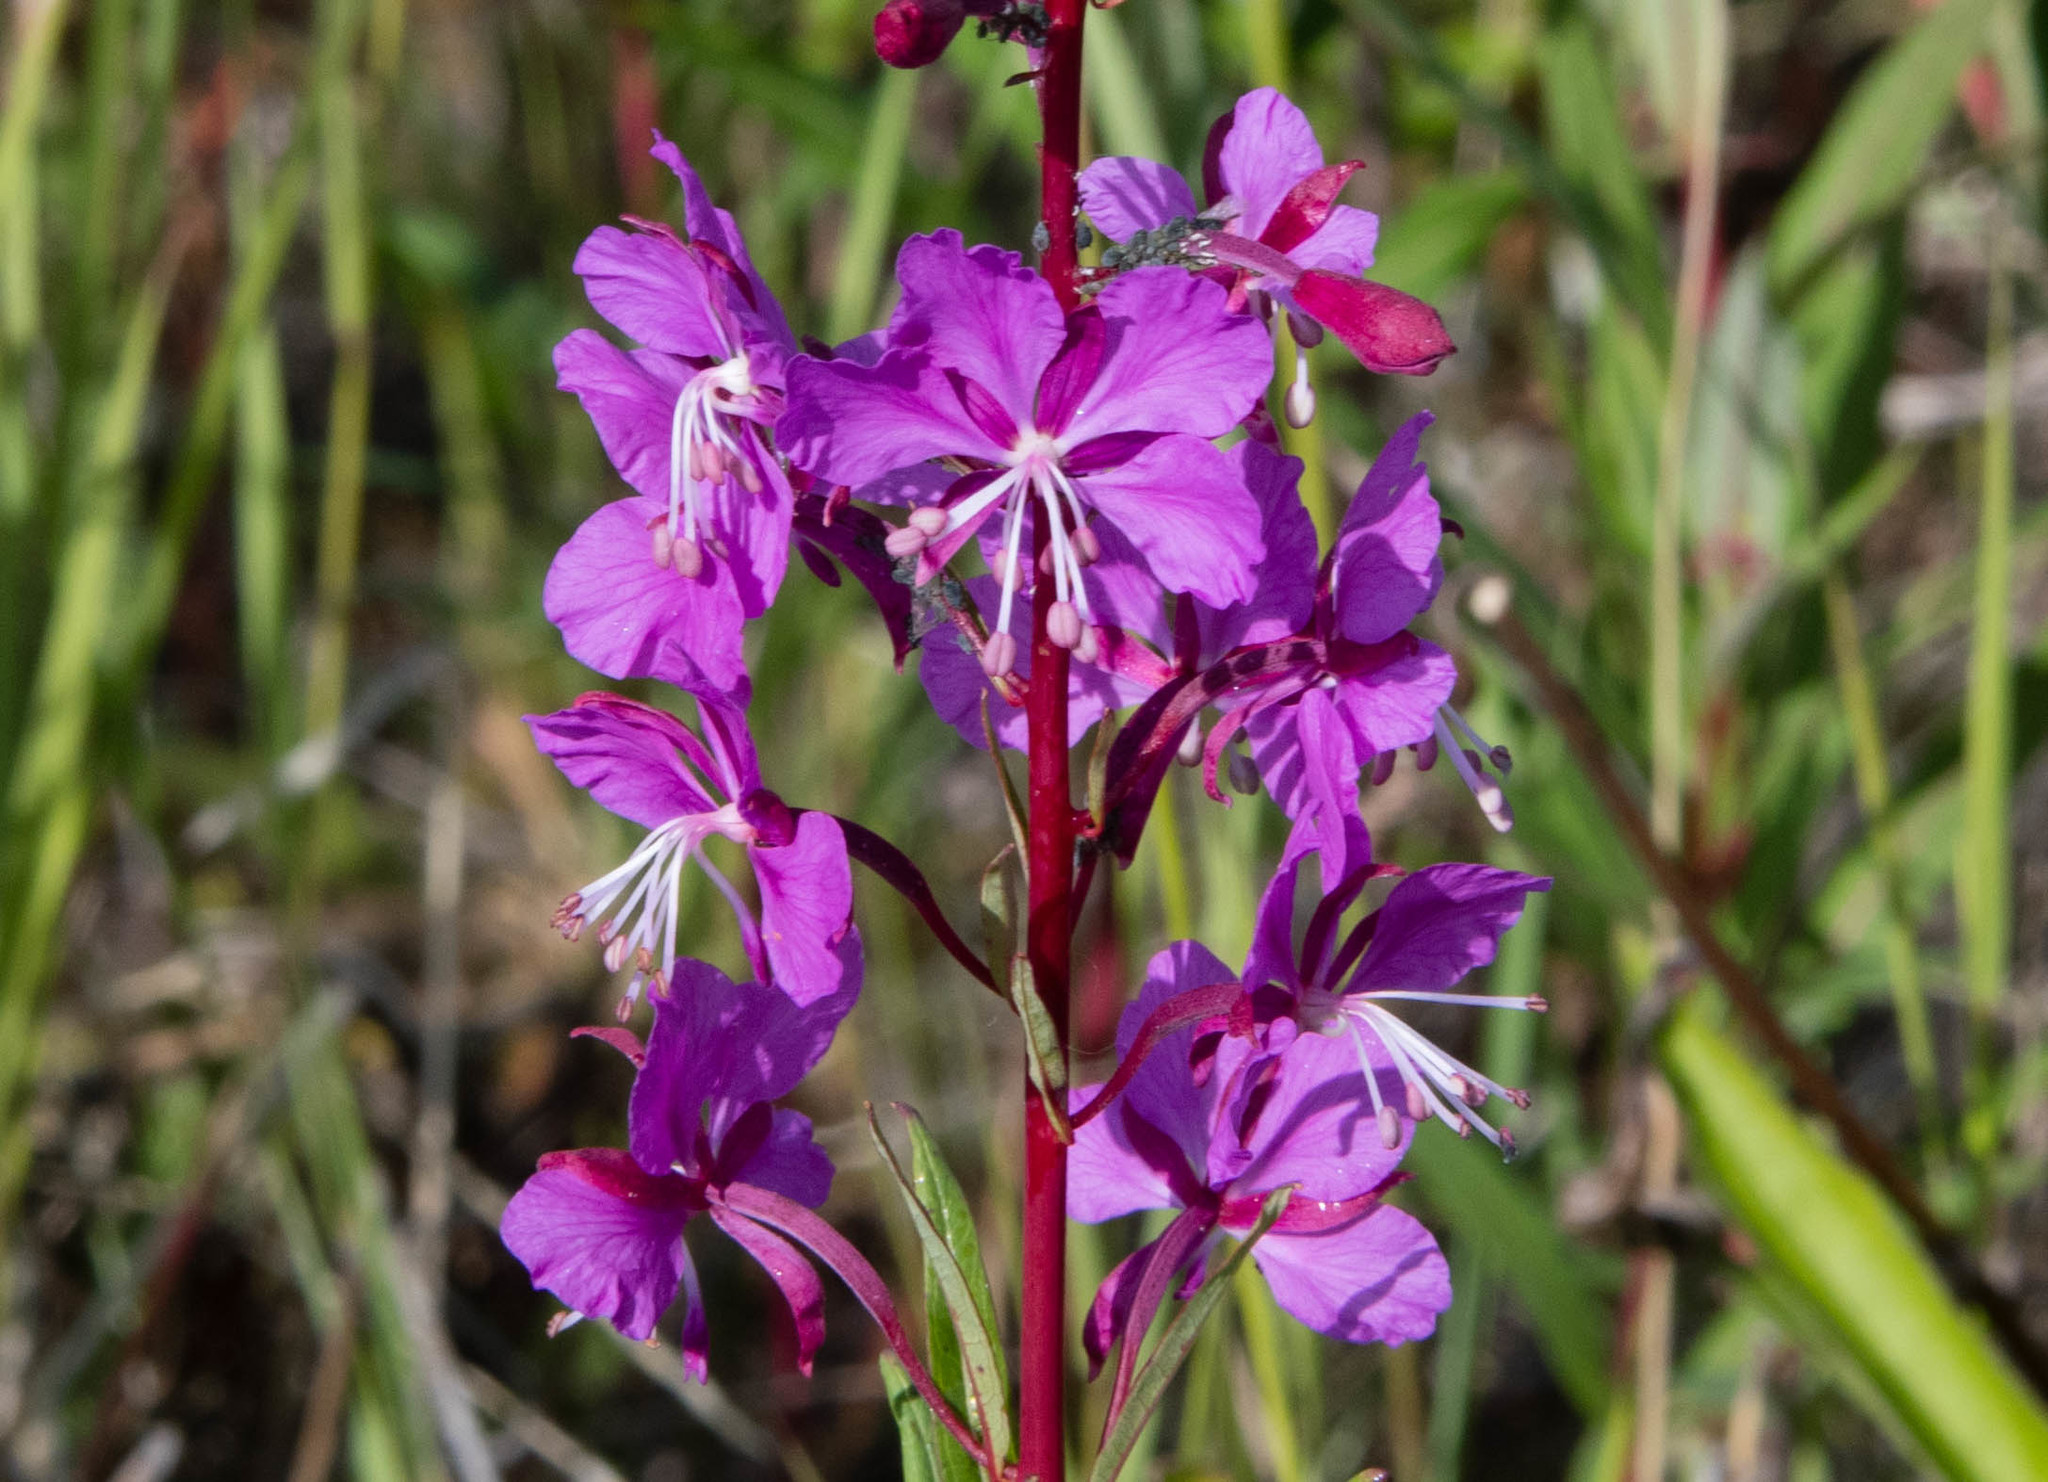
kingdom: Plantae
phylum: Tracheophyta
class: Magnoliopsida
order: Myrtales
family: Onagraceae
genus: Chamaenerion
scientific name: Chamaenerion angustifolium
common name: Fireweed
